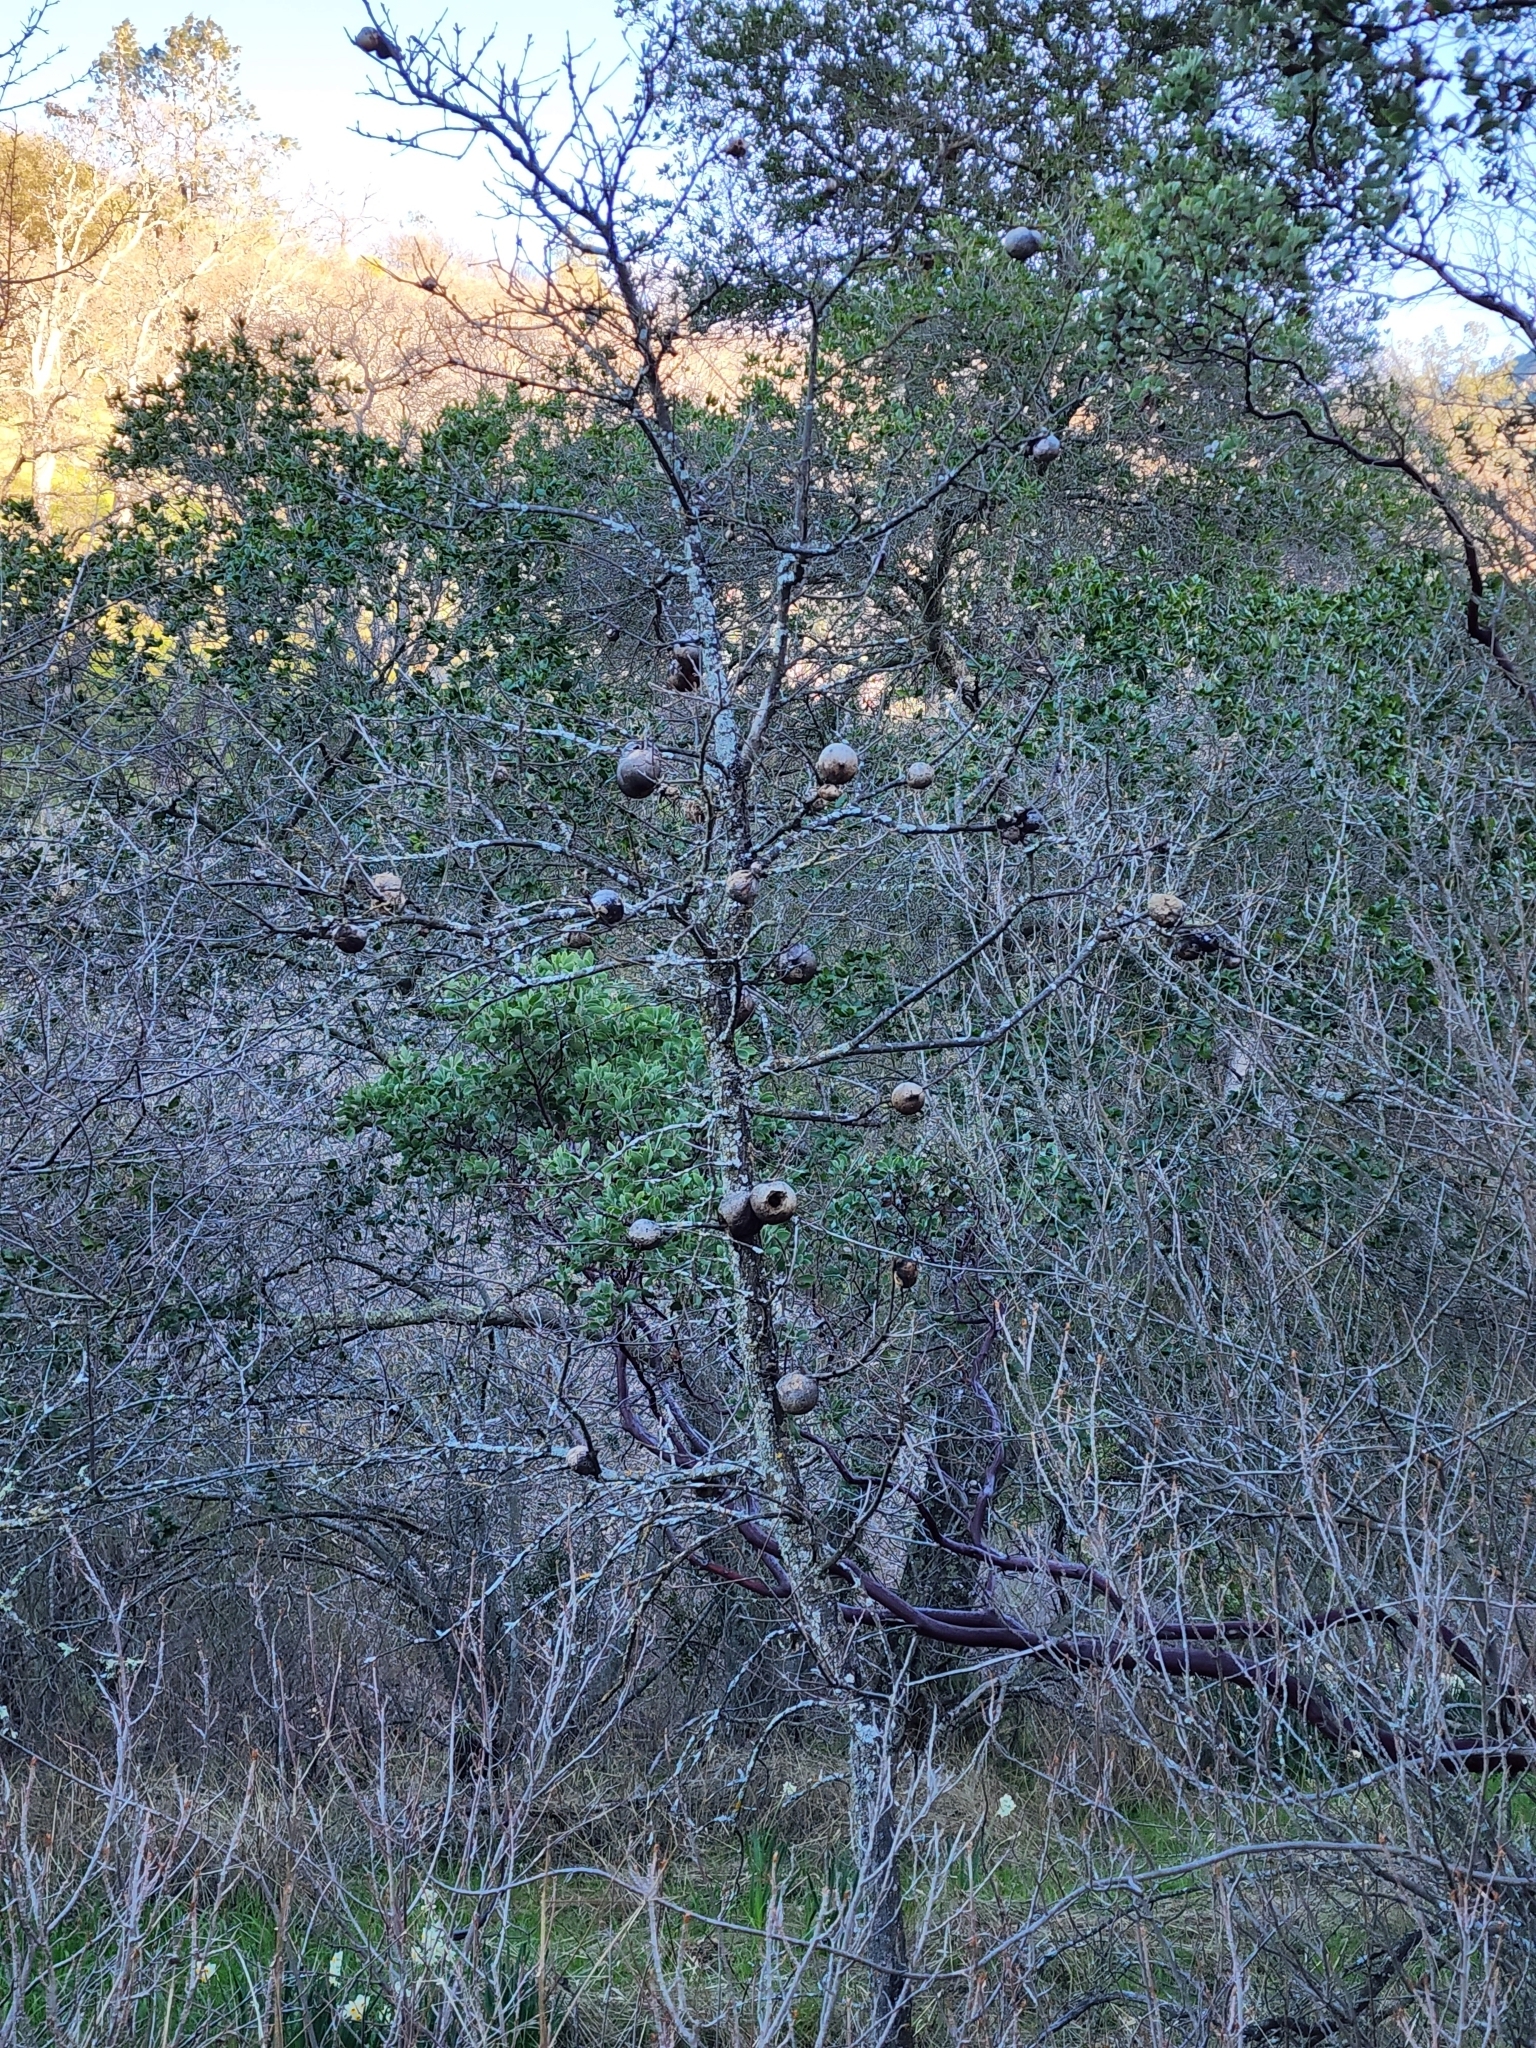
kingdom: Animalia
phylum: Arthropoda
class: Insecta
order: Hymenoptera
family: Cynipidae
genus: Andricus
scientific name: Andricus quercuscalifornicus
